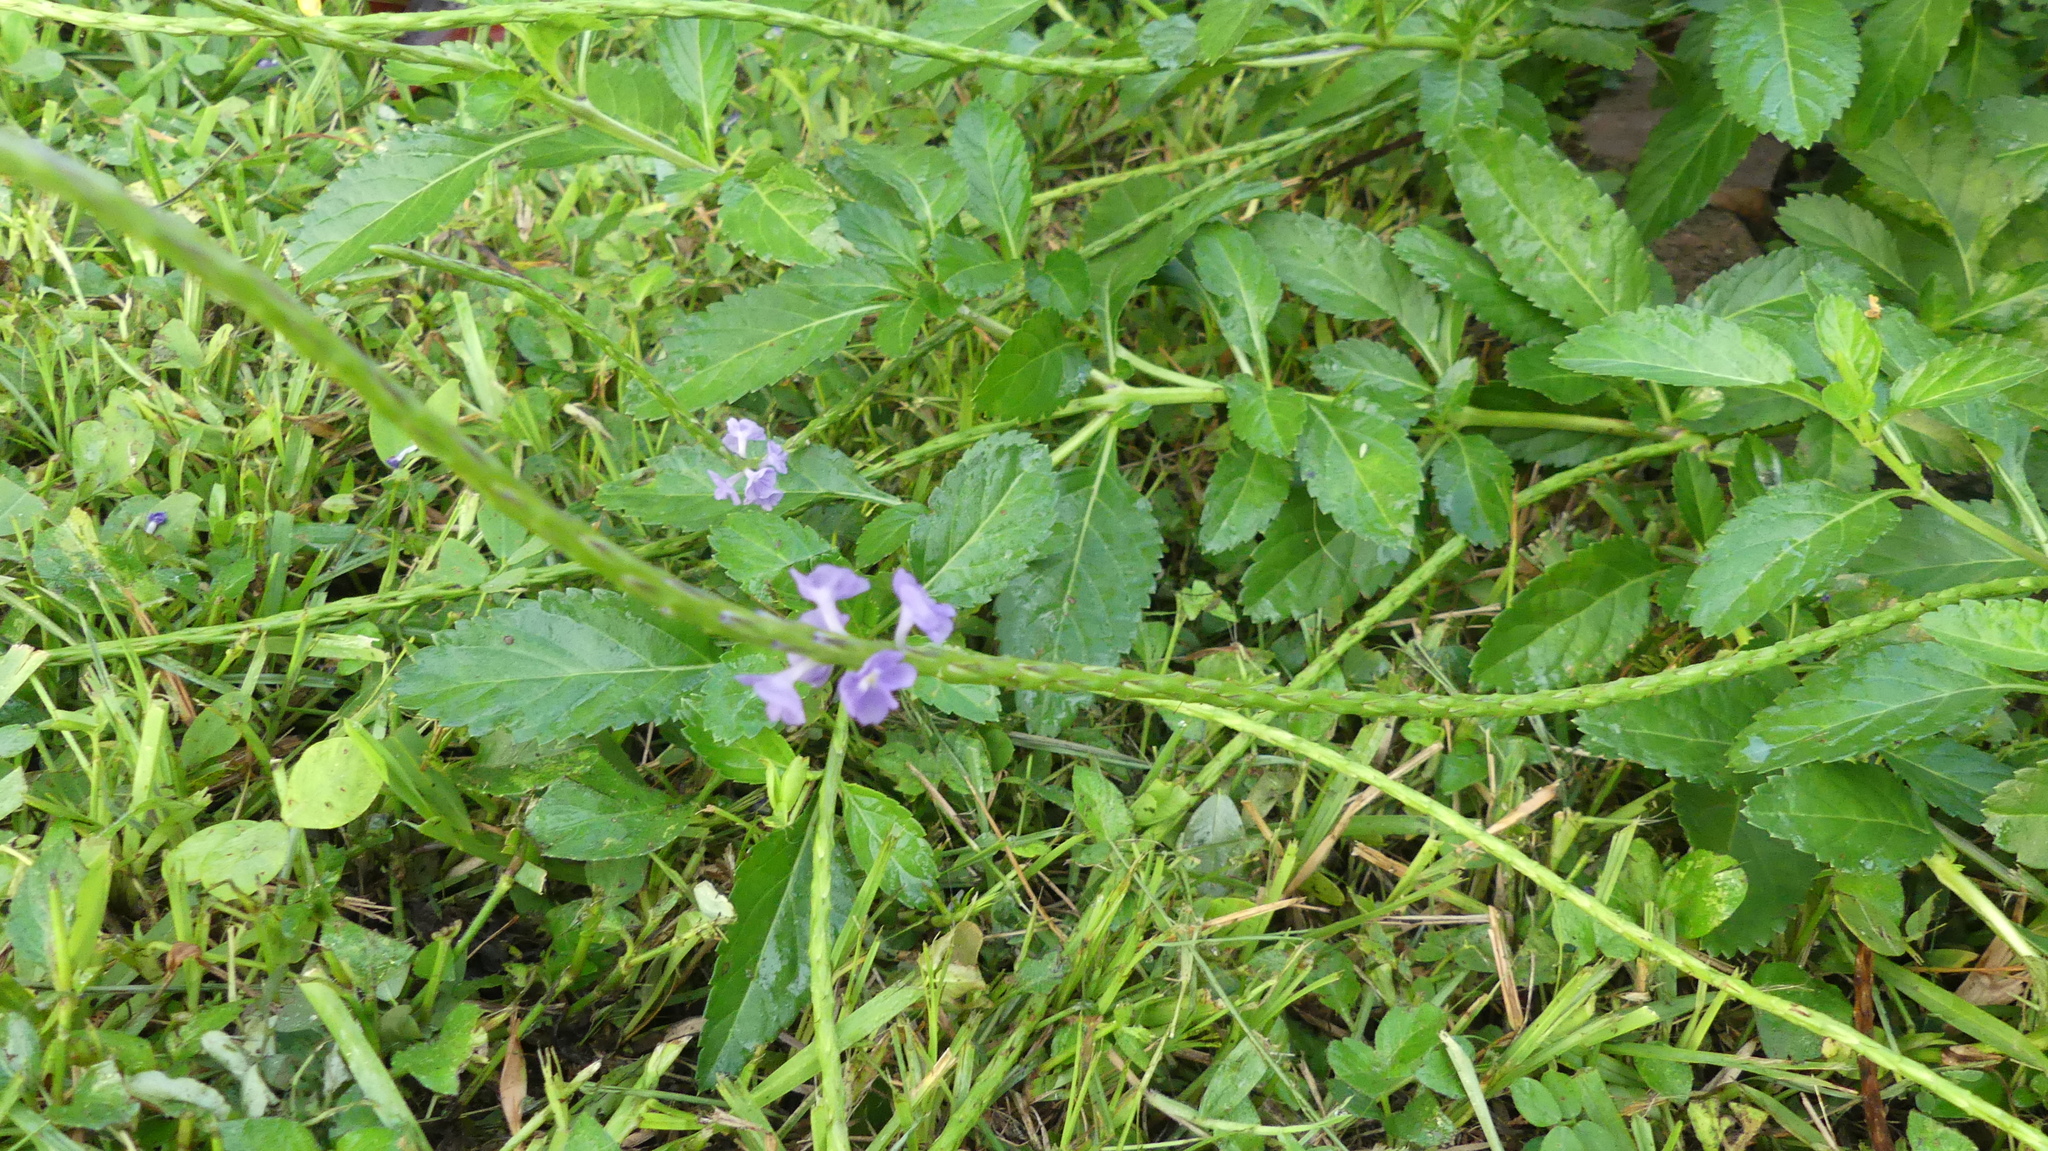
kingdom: Plantae
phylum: Tracheophyta
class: Magnoliopsida
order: Lamiales
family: Verbenaceae
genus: Stachytarpheta
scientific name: Stachytarpheta jamaicensis
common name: Light-blue snakeweed
